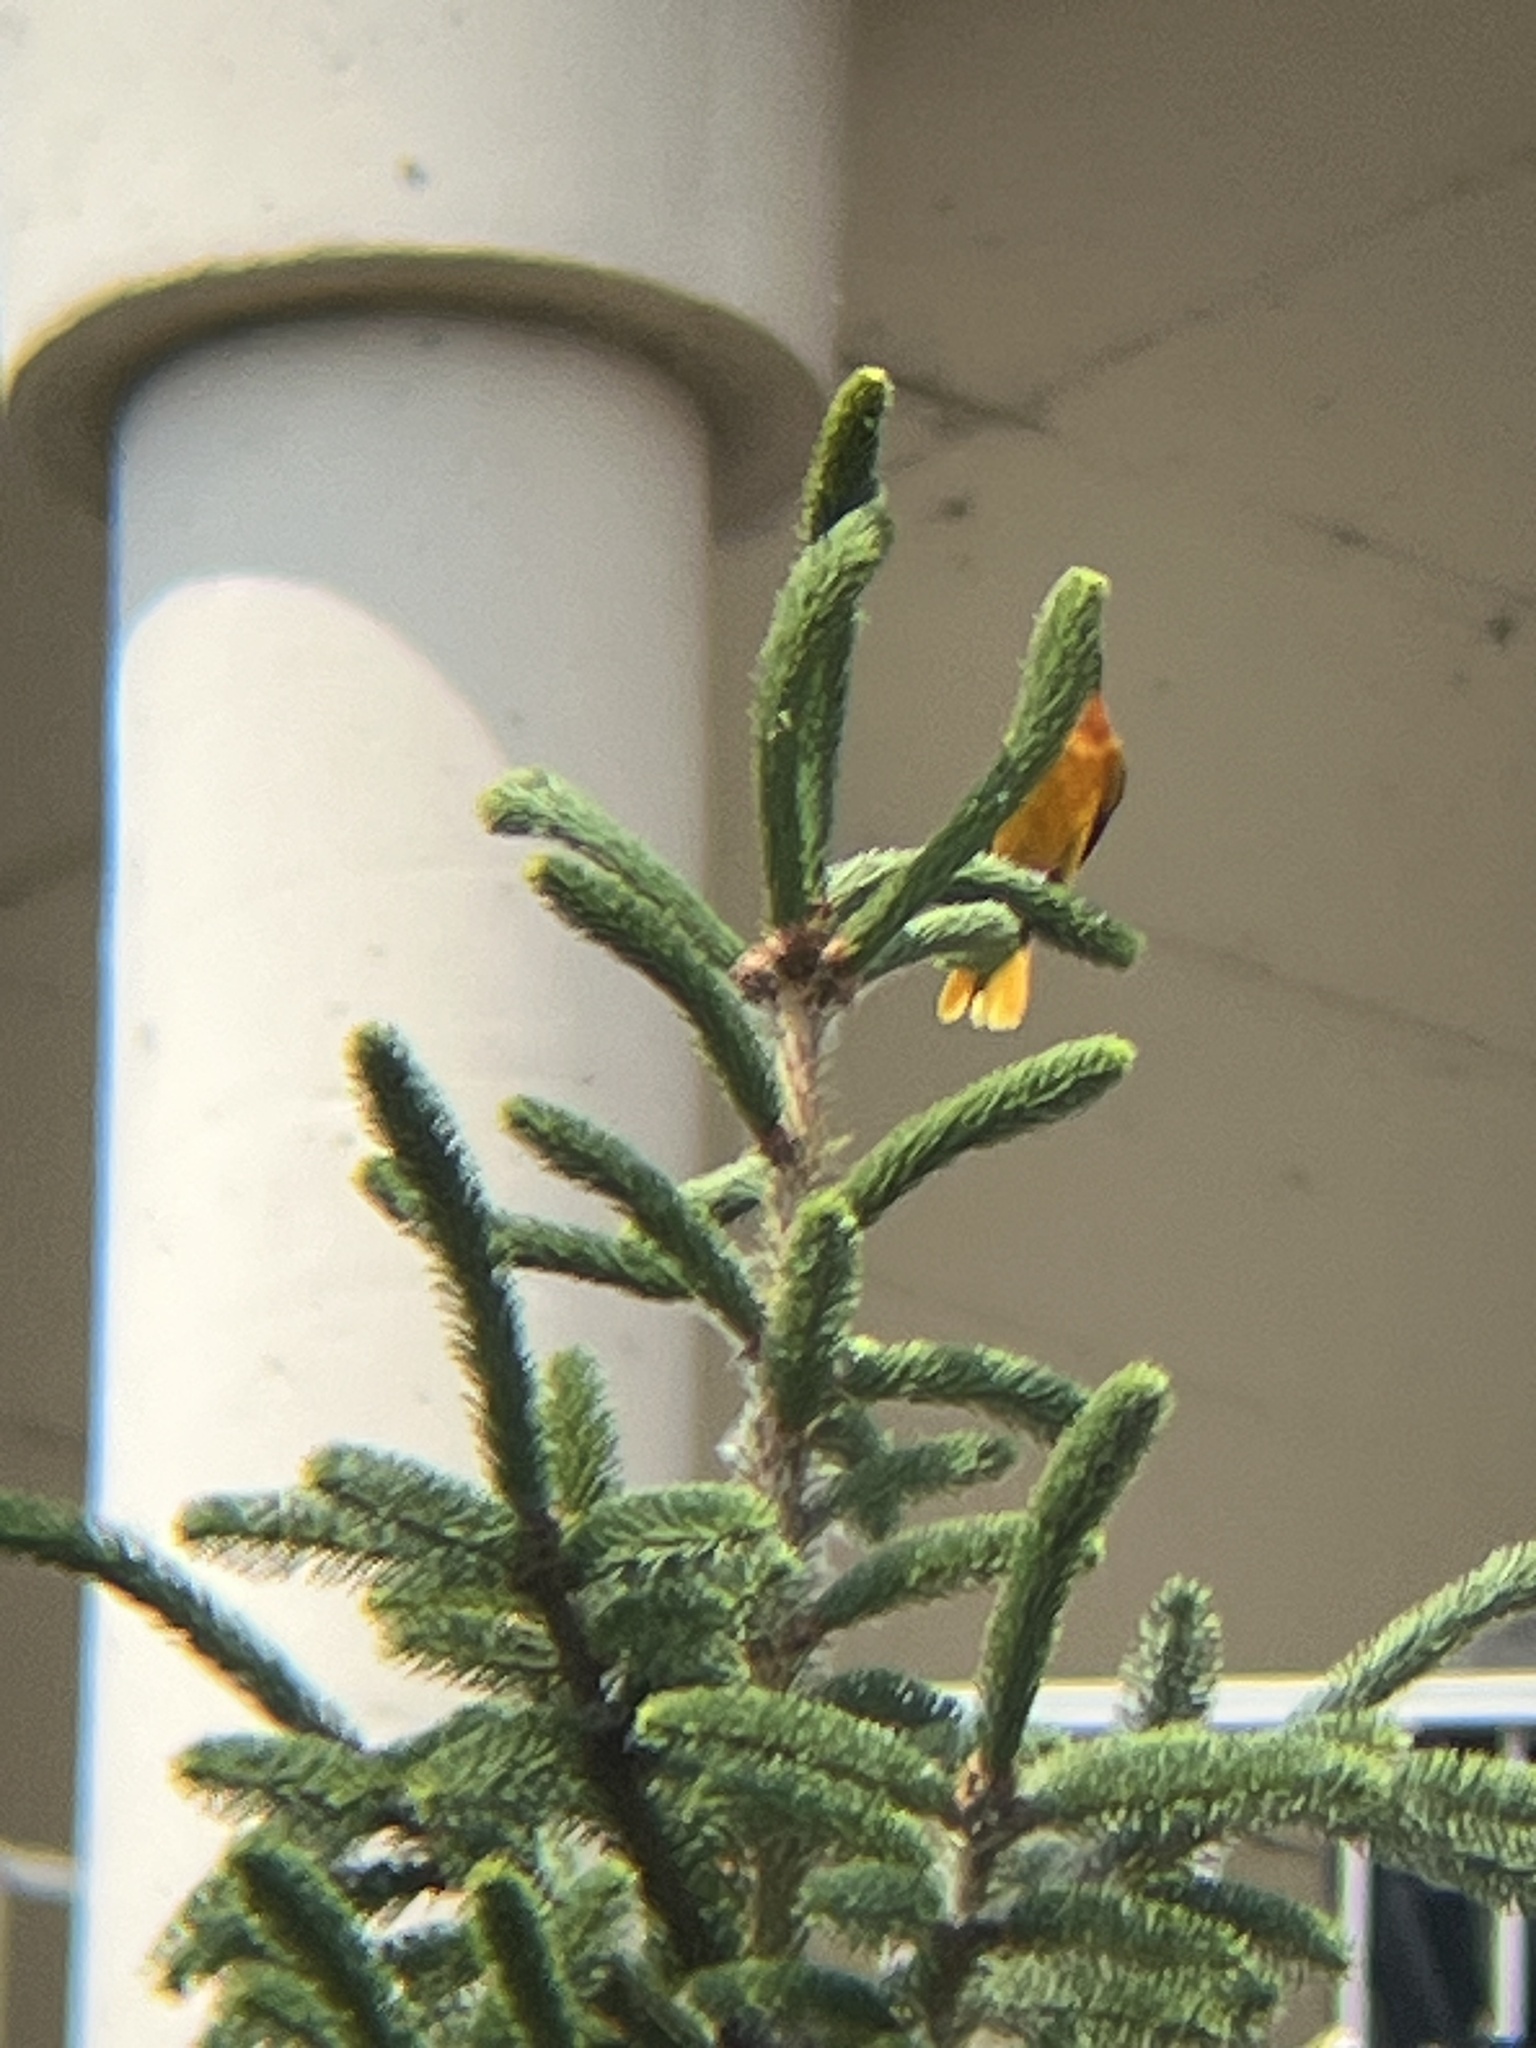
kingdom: Animalia
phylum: Chordata
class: Aves
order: Passeriformes
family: Icteridae
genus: Icterus
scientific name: Icterus galbula
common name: Baltimore oriole
